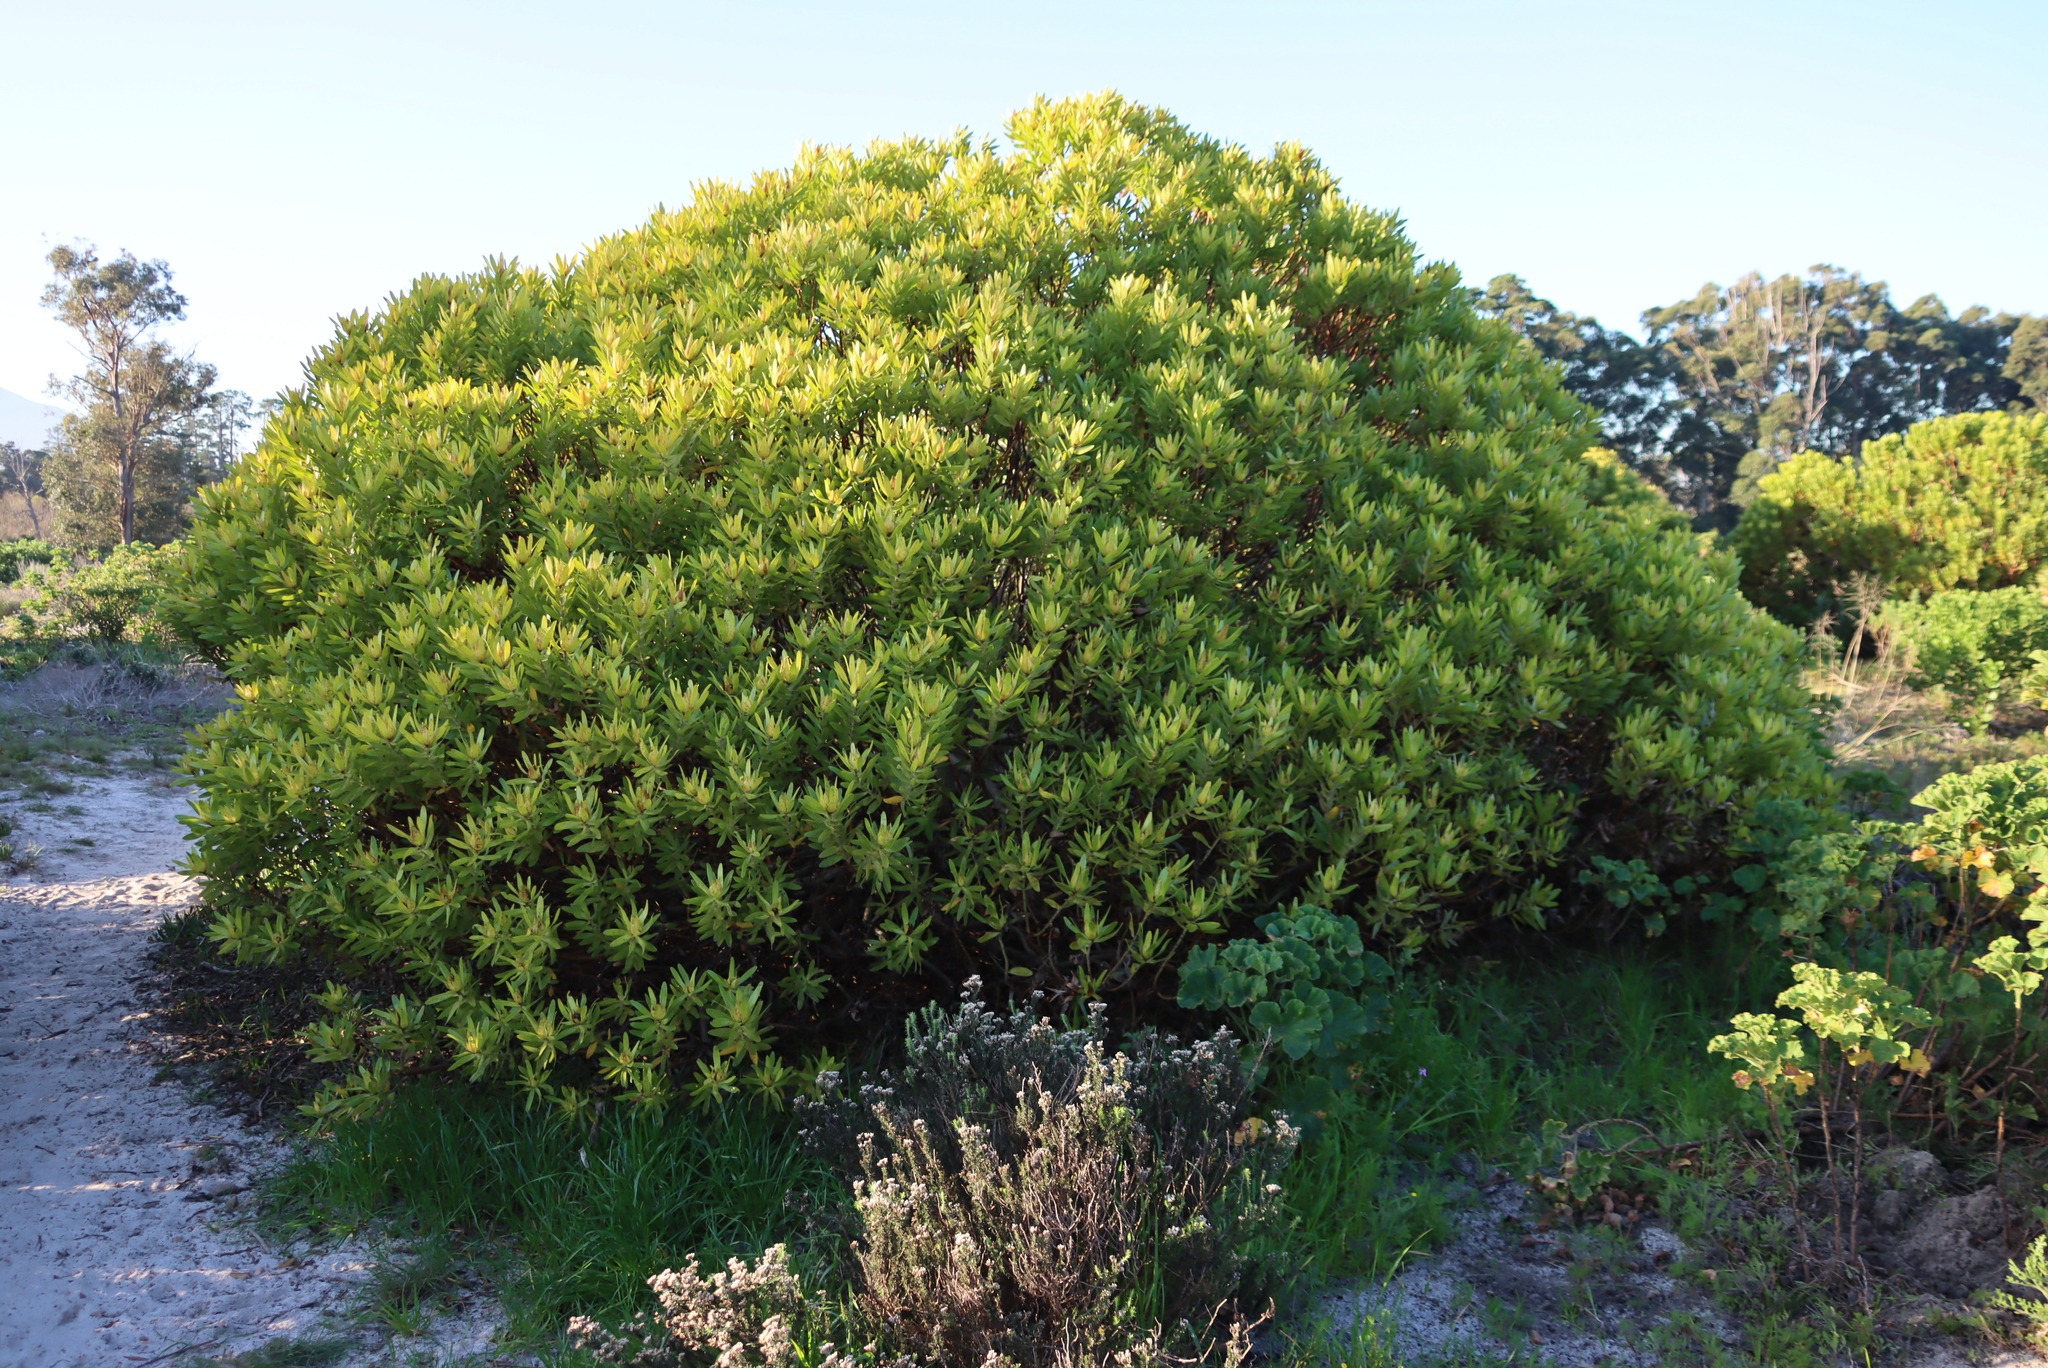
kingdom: Plantae
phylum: Tracheophyta
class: Magnoliopsida
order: Proteales
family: Proteaceae
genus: Leucadendron
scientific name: Leucadendron laureolum
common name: Golden sunshinebush
